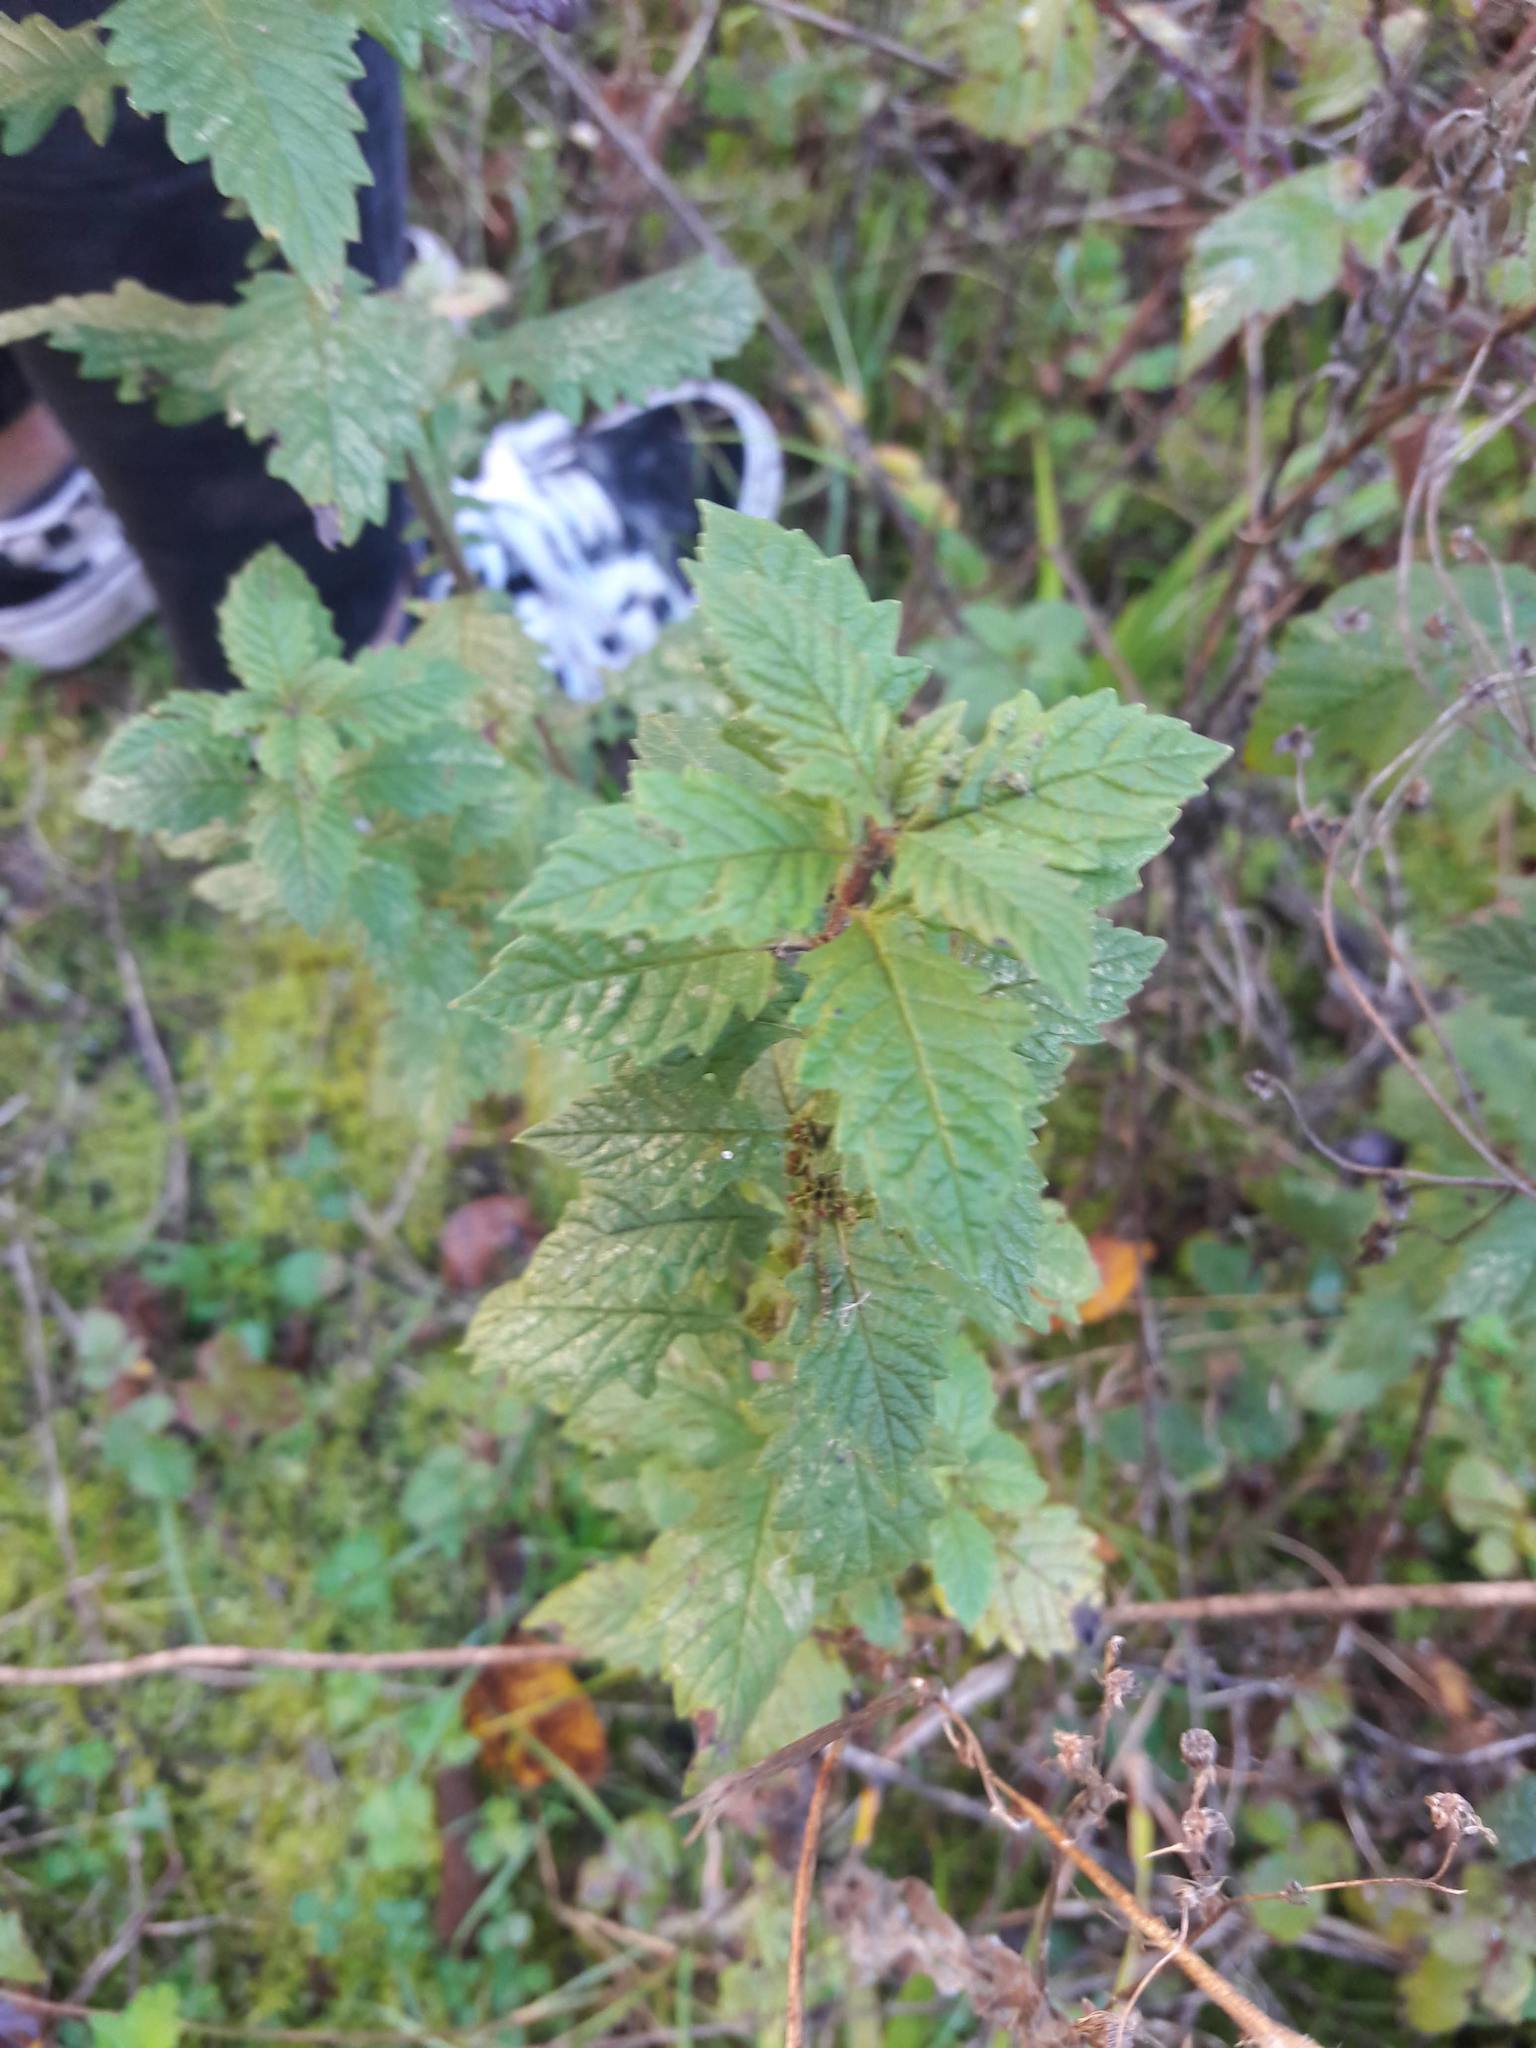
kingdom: Plantae
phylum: Tracheophyta
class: Magnoliopsida
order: Lamiales
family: Lamiaceae
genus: Lycopus
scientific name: Lycopus europaeus
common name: European bugleweed
